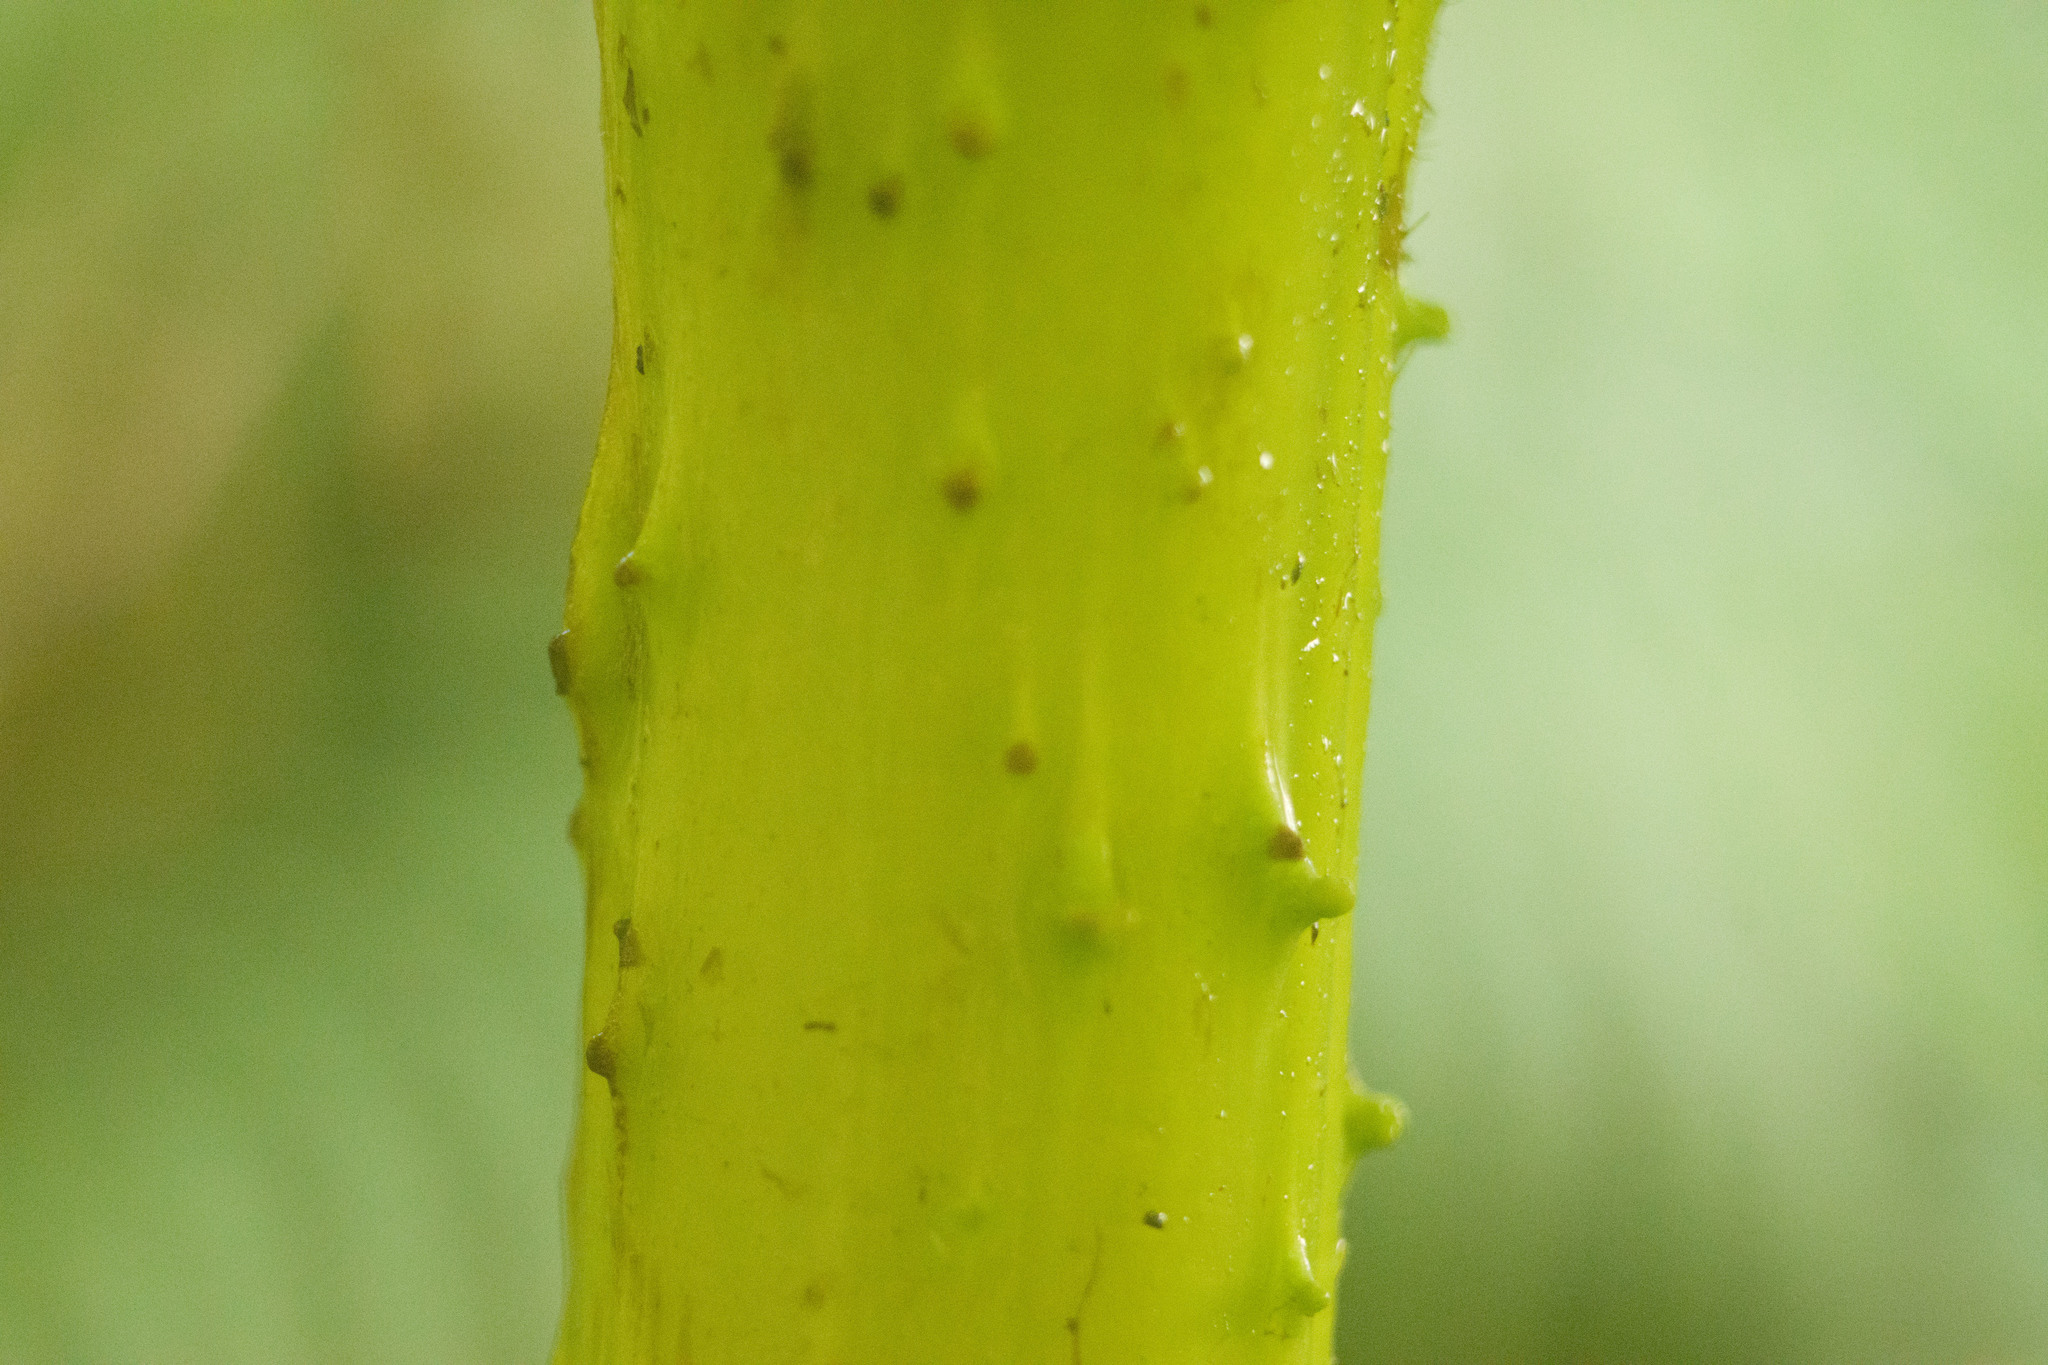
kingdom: Plantae
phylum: Tracheophyta
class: Magnoliopsida
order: Gunnerales
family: Gunneraceae
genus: Gunnera
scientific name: Gunnera petaloidea
